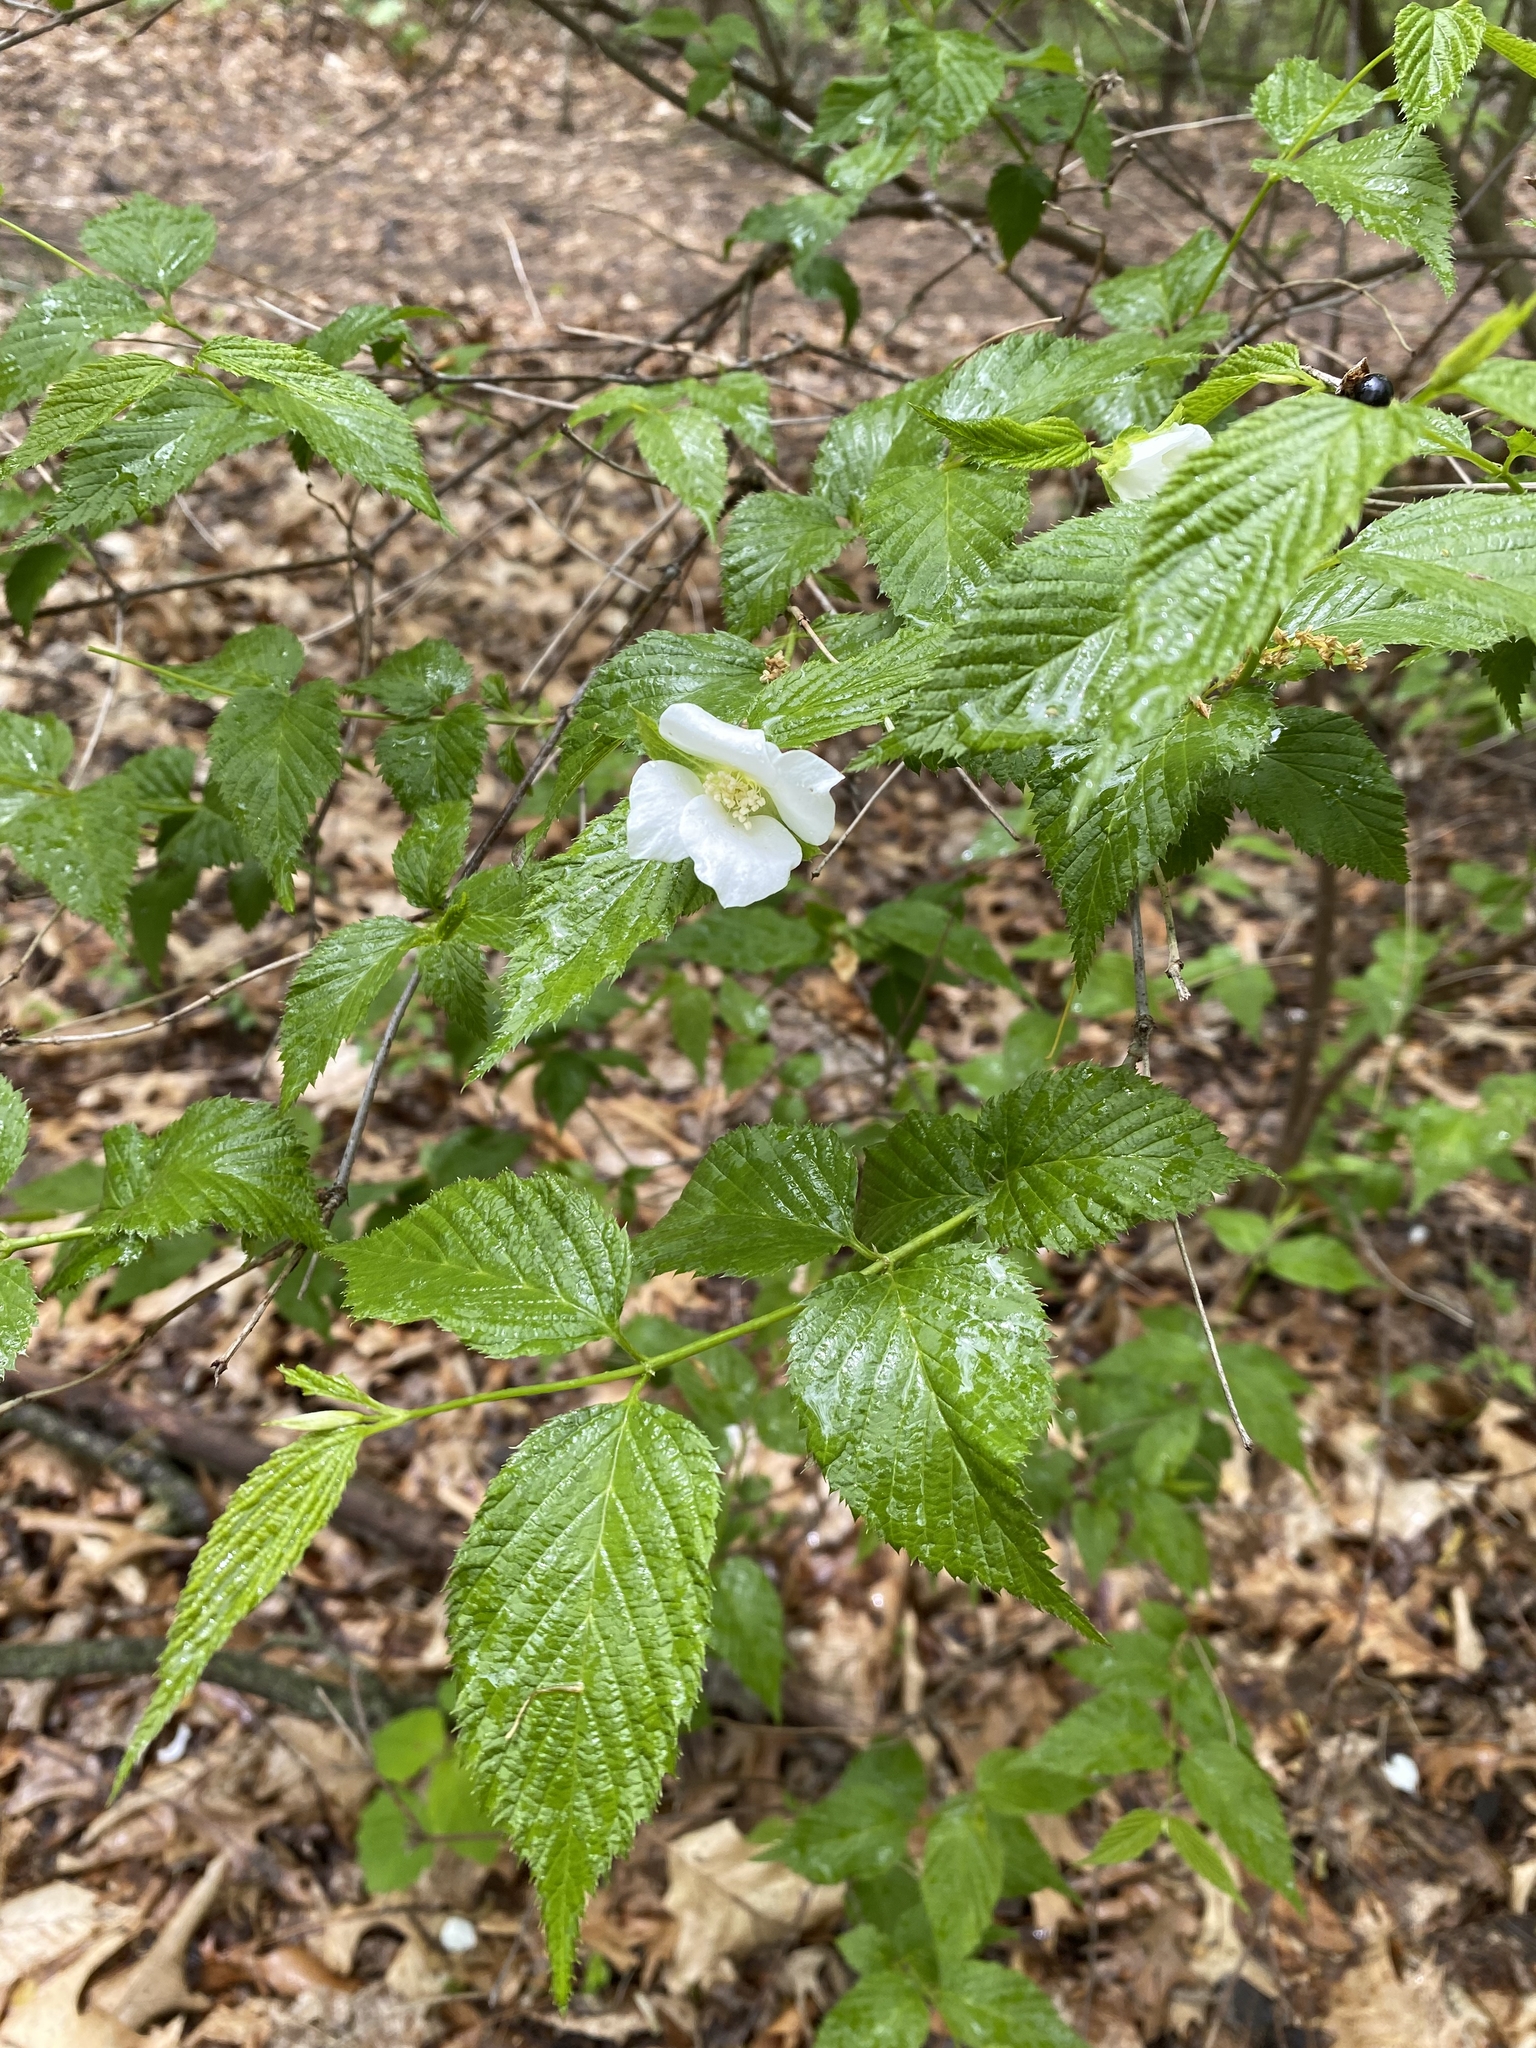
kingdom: Plantae
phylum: Tracheophyta
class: Magnoliopsida
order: Rosales
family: Rosaceae
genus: Rhodotypos
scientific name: Rhodotypos scandens
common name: Jetbead
